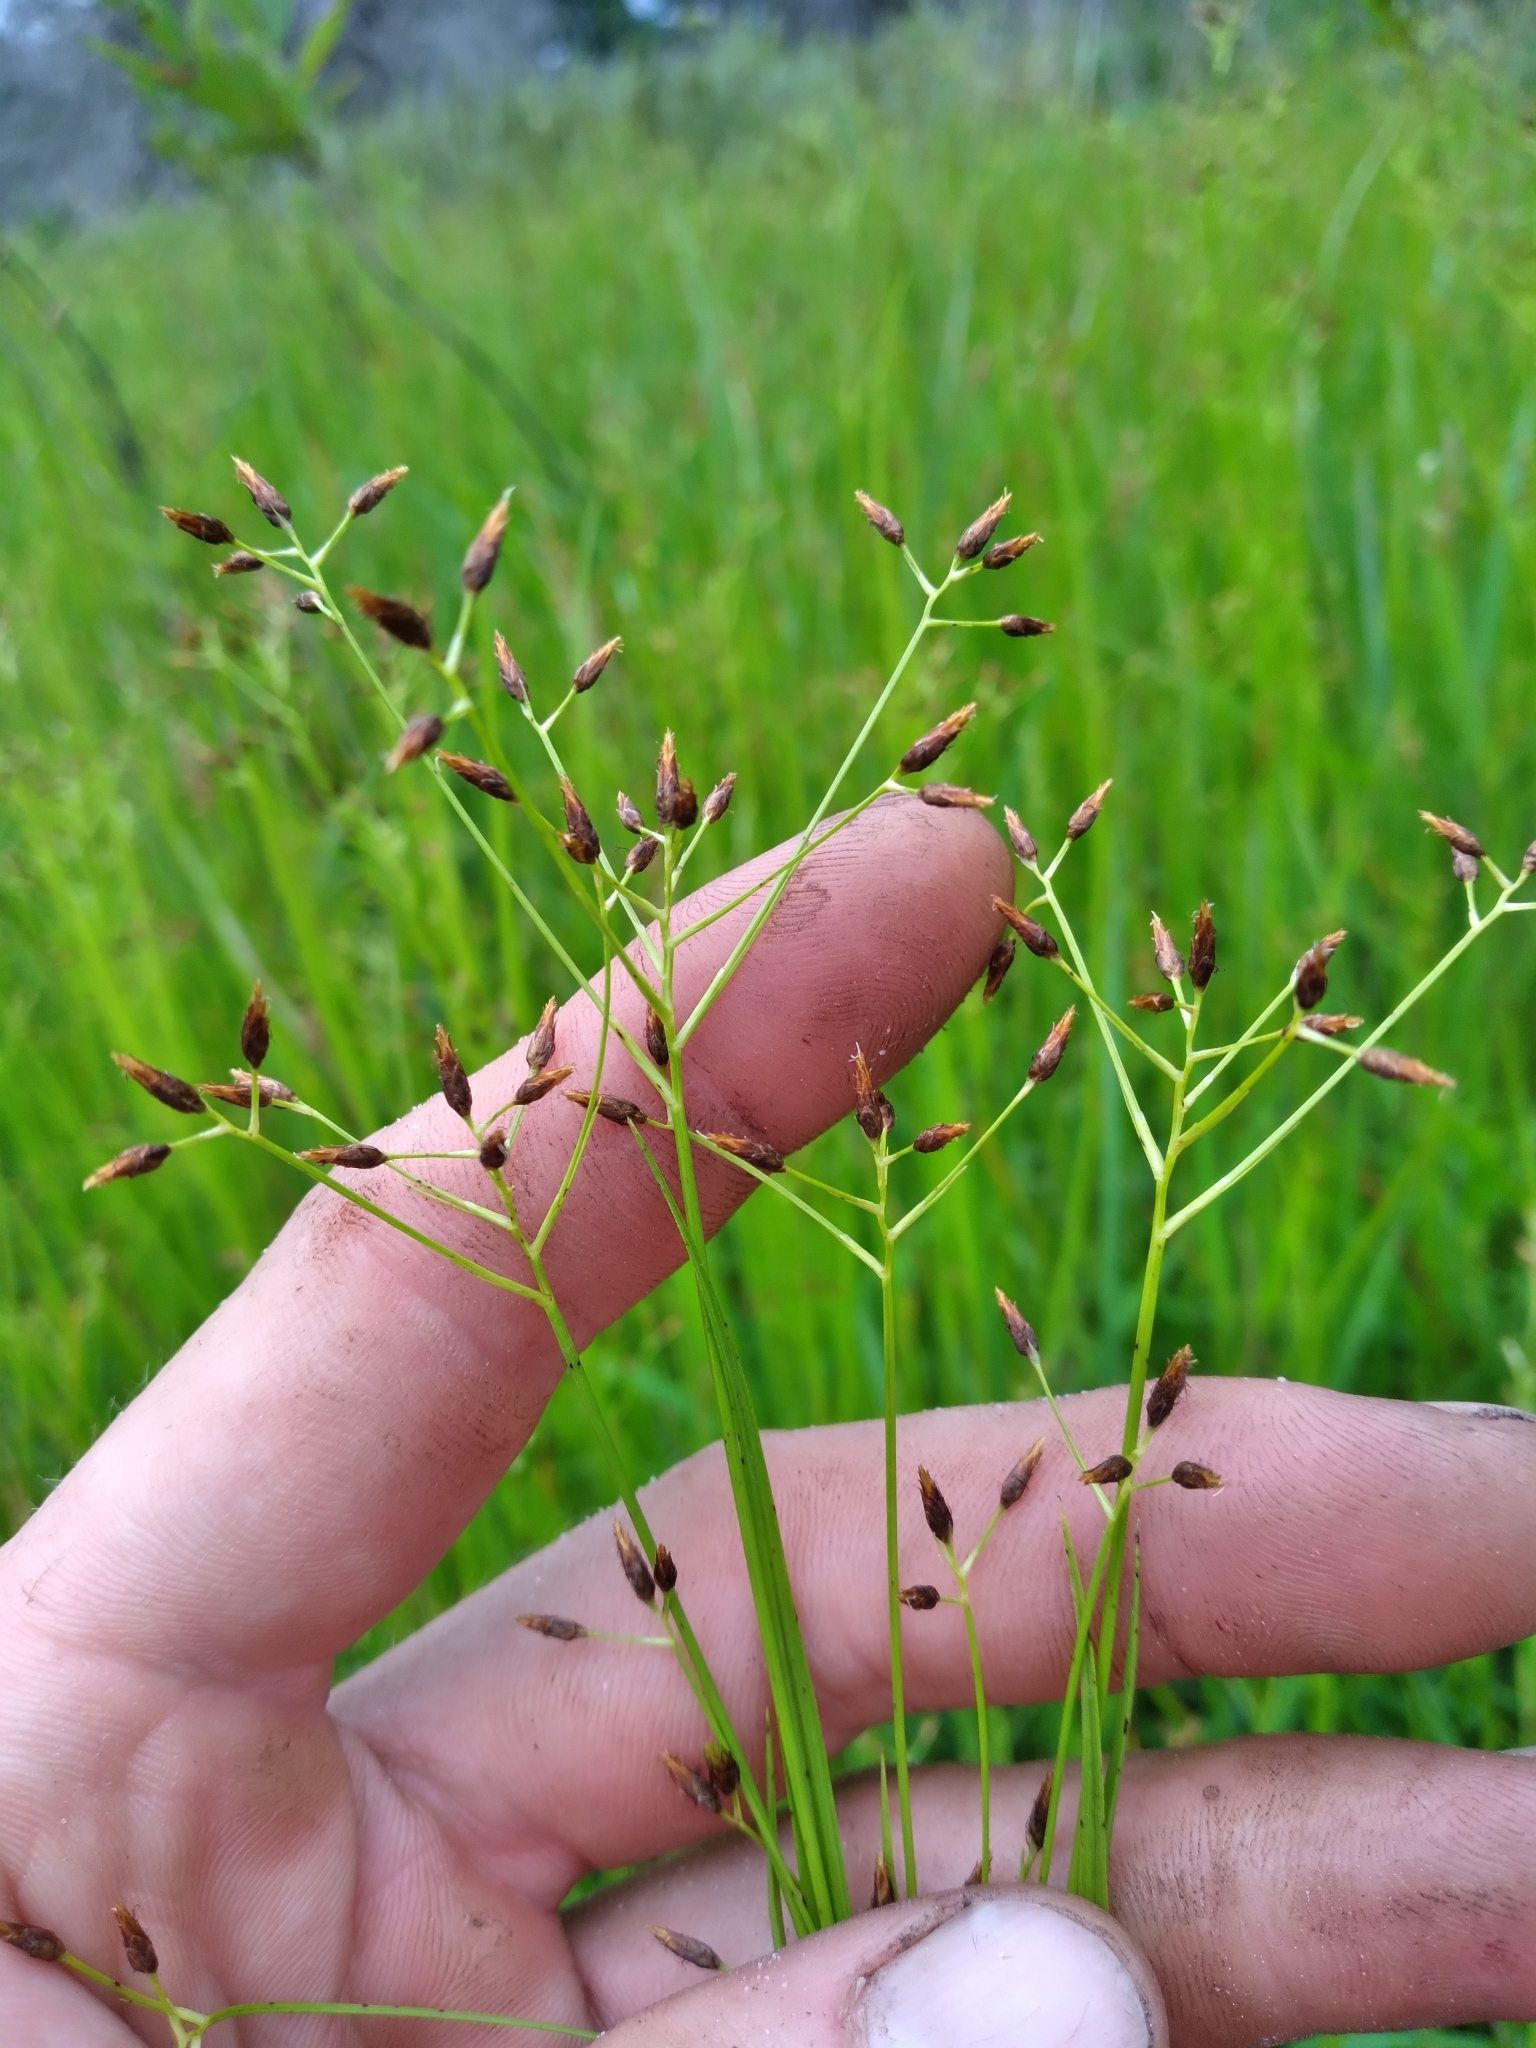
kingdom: Plantae
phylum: Tracheophyta
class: Liliopsida
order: Poales
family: Cyperaceae
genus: Rhynchospora
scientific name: Rhynchospora scirpoides
